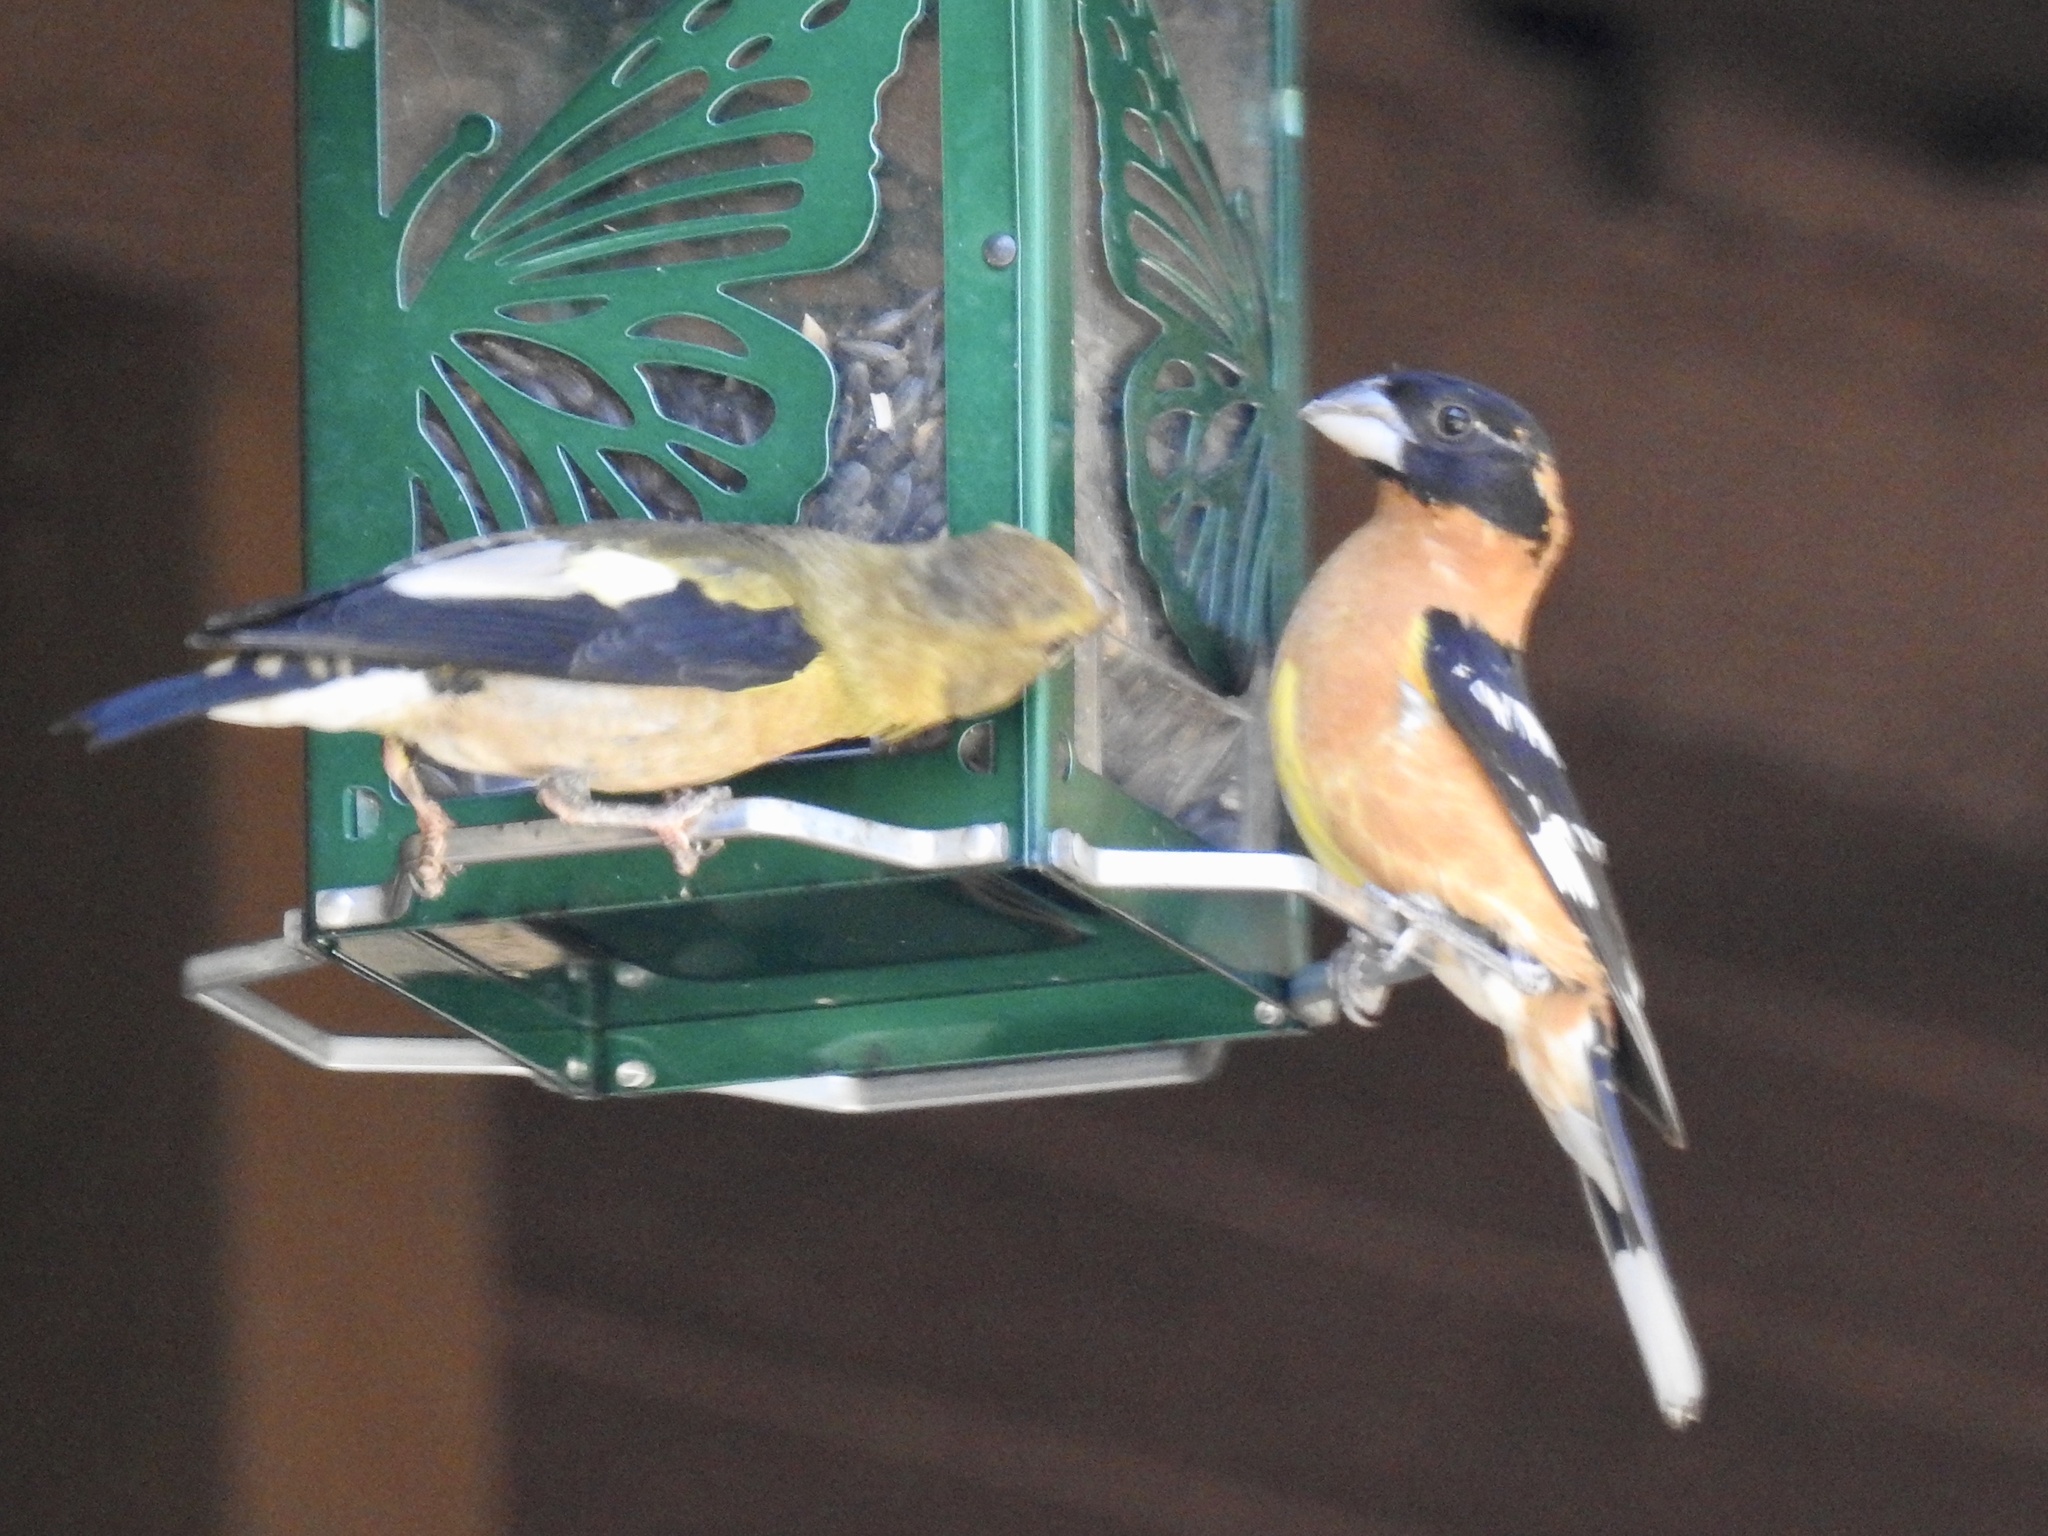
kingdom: Animalia
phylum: Chordata
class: Aves
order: Passeriformes
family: Fringillidae
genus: Hesperiphona
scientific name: Hesperiphona vespertina
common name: Evening grosbeak
